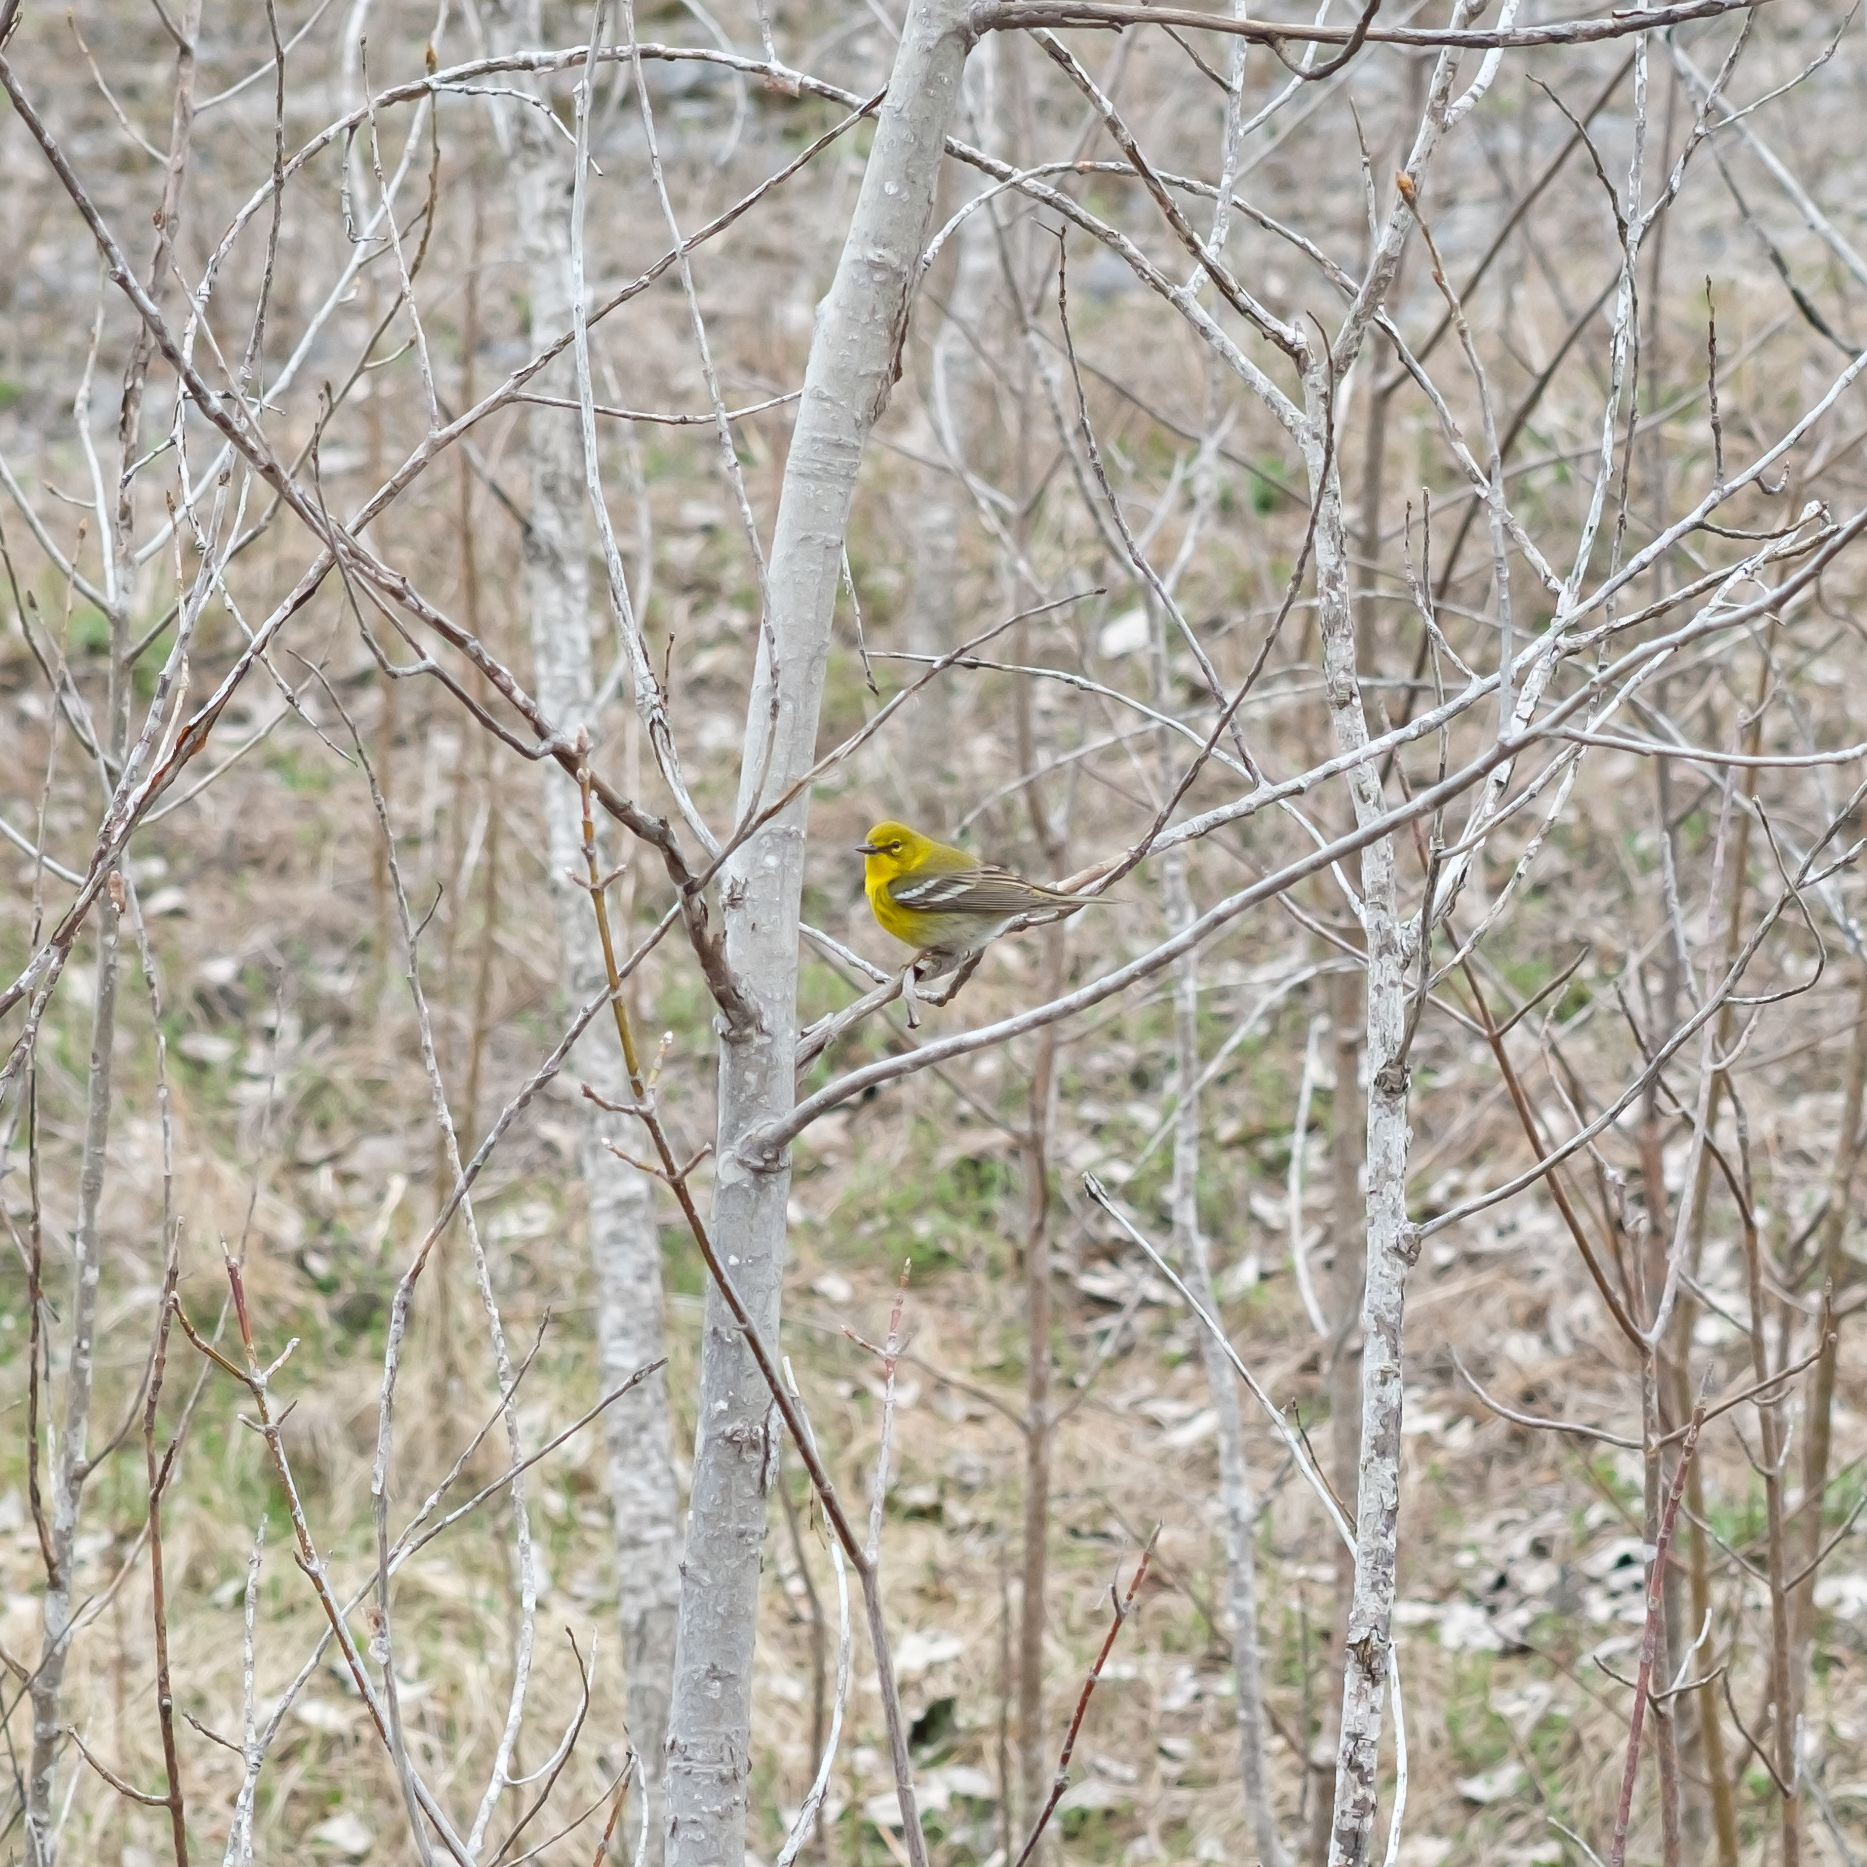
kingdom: Animalia
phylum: Chordata
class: Aves
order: Passeriformes
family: Parulidae
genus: Setophaga
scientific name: Setophaga pinus
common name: Pine warbler
